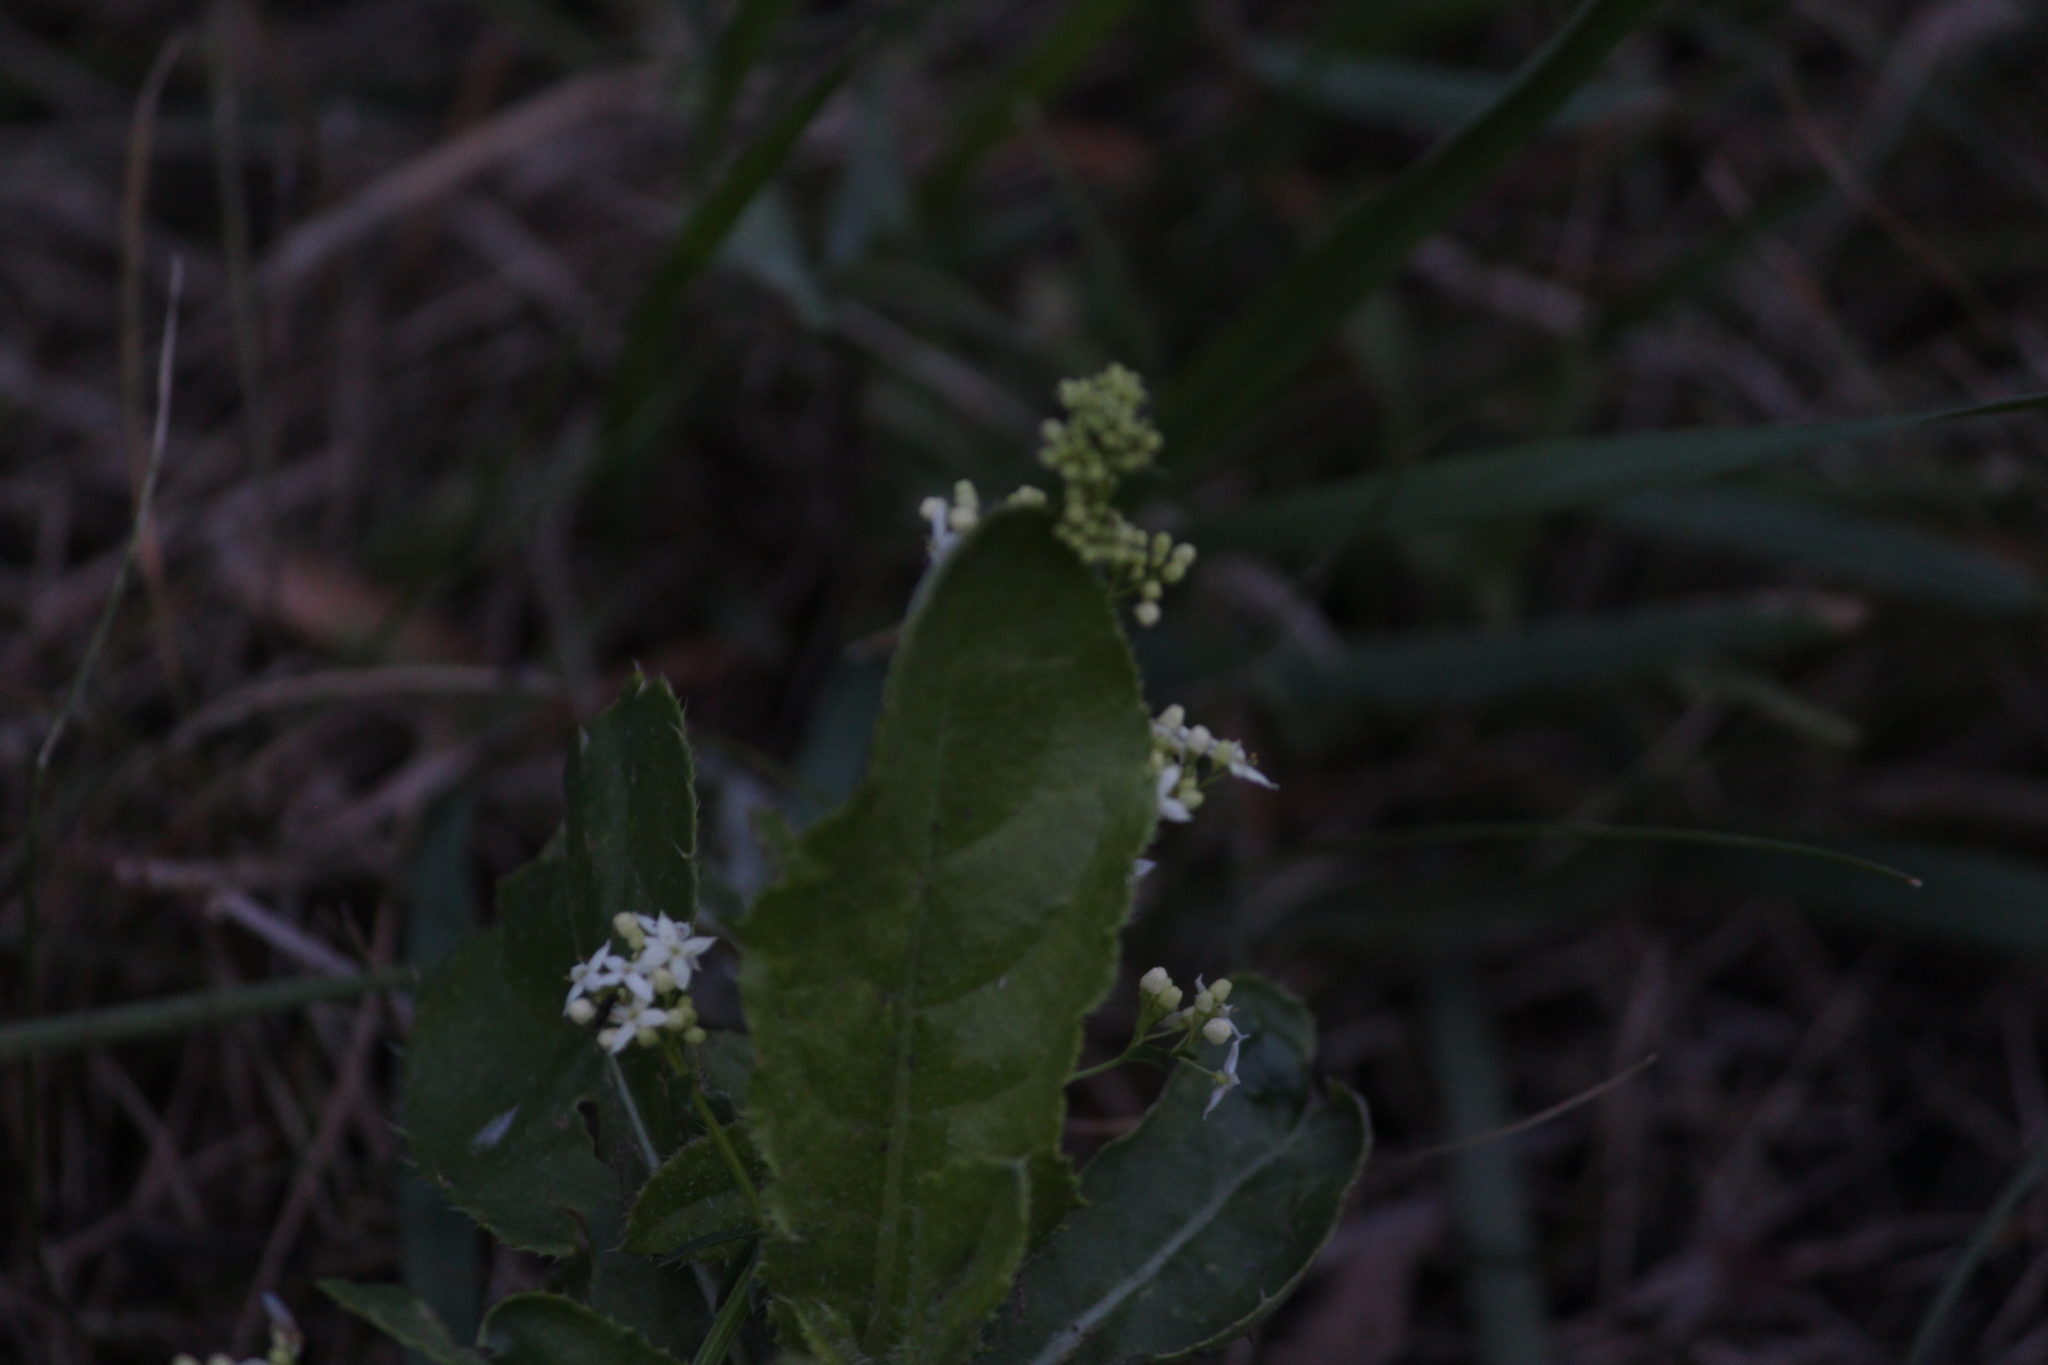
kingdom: Plantae
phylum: Tracheophyta
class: Magnoliopsida
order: Brassicales
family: Brassicaceae
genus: Armoracia
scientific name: Armoracia rusticana
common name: Horseradish
